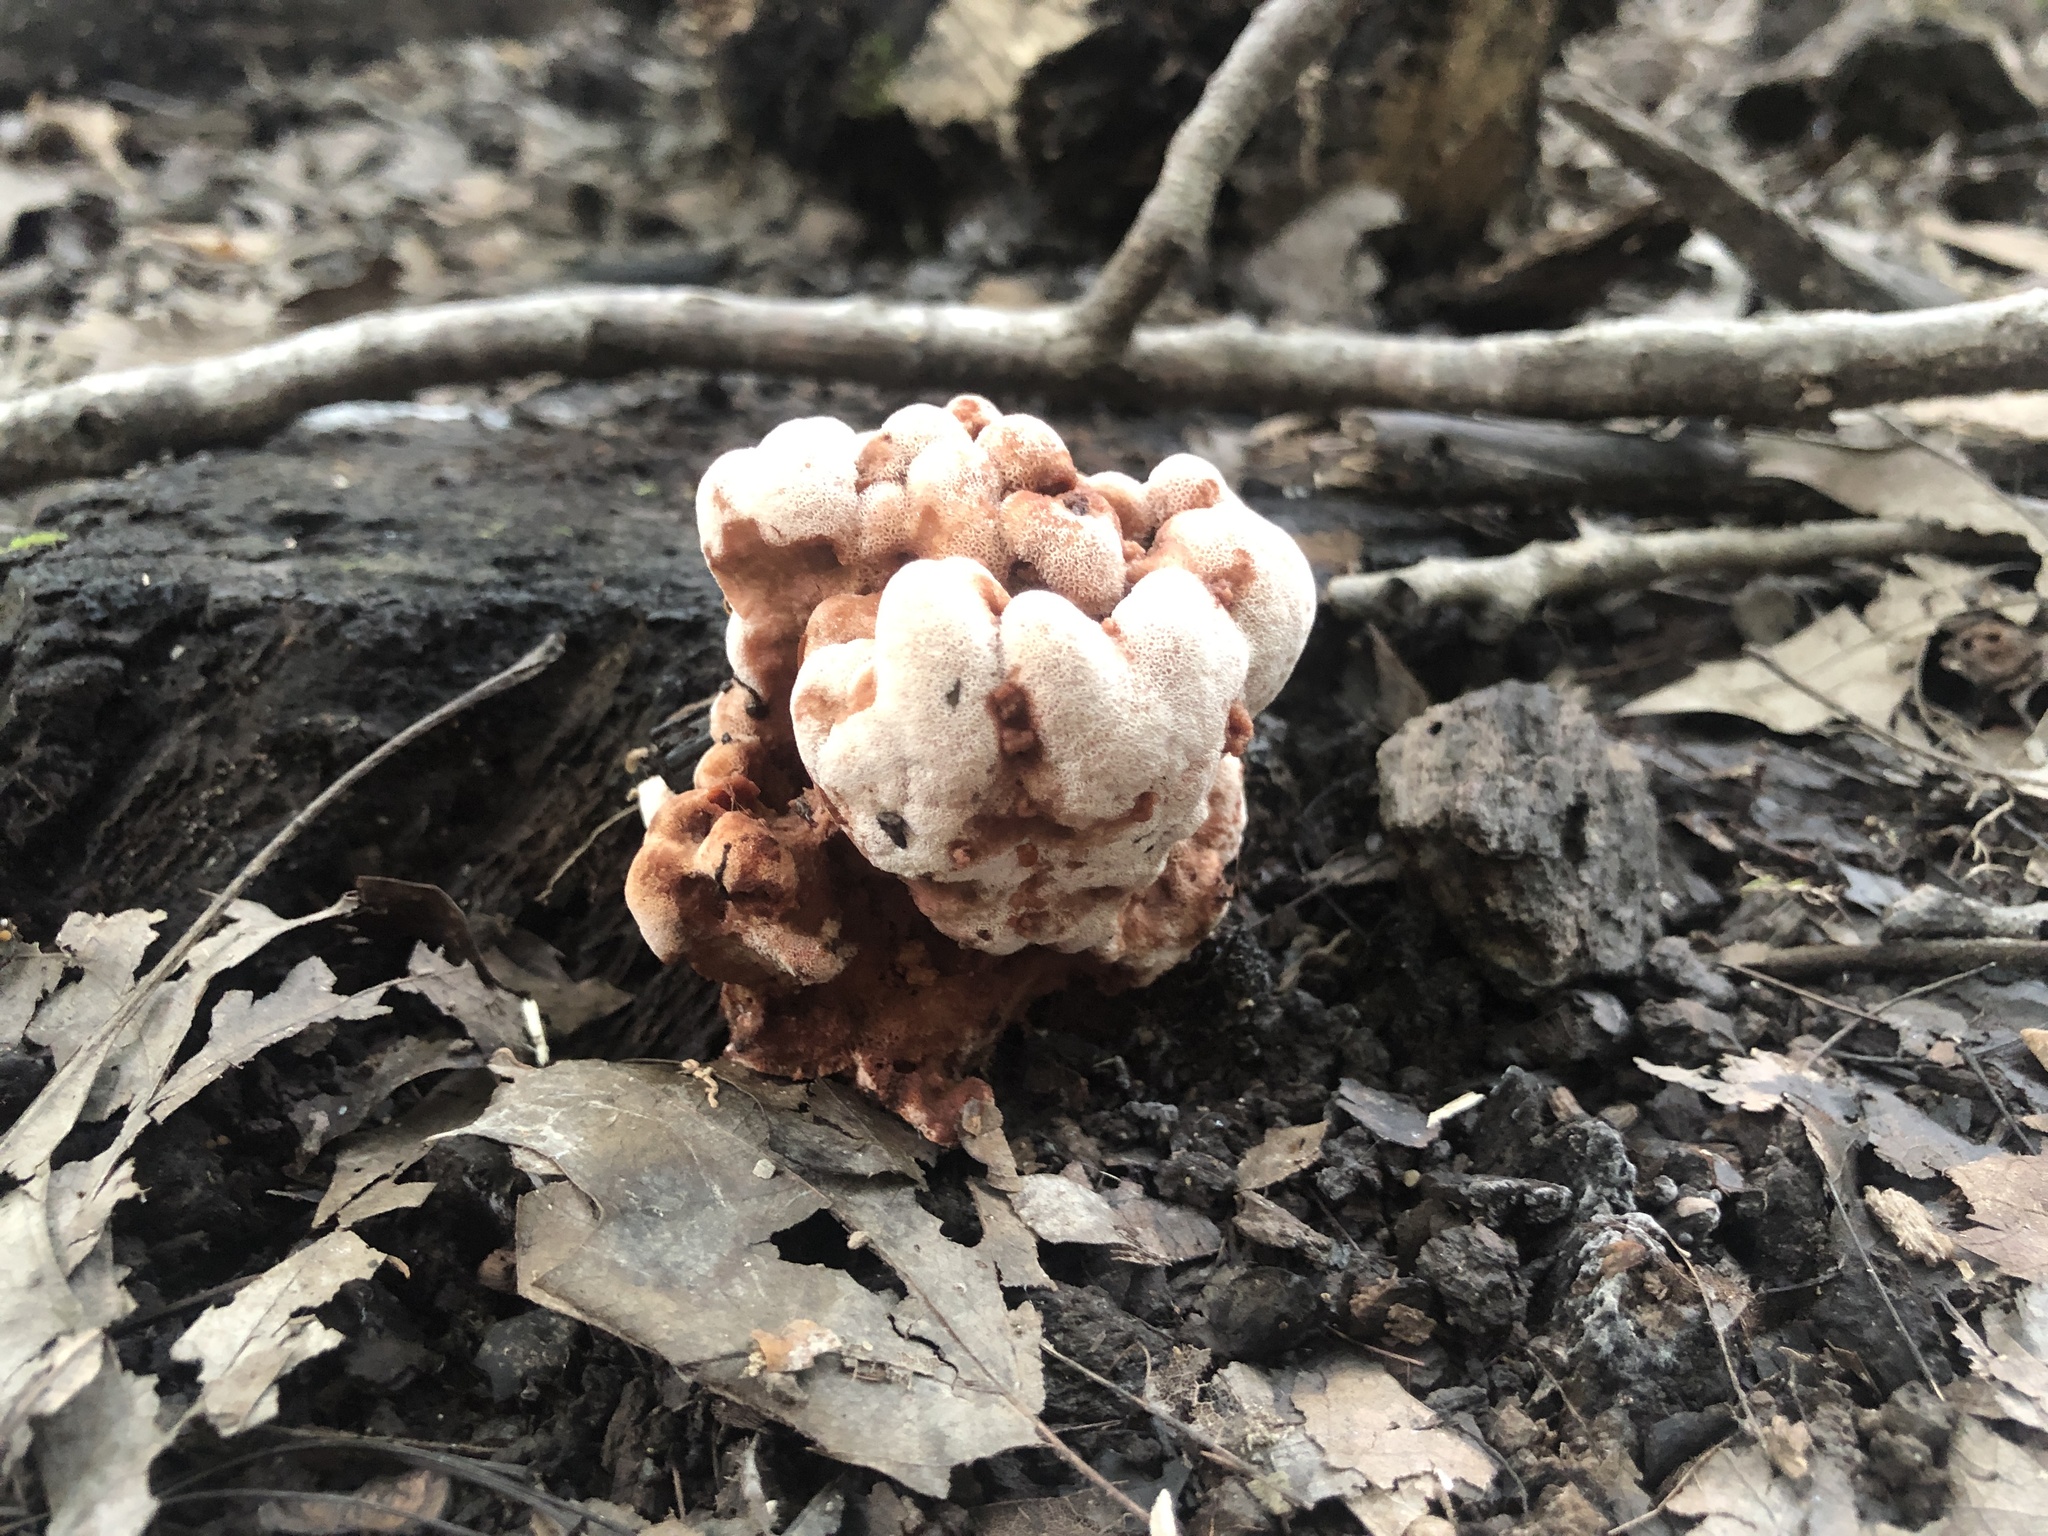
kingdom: Fungi
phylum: Basidiomycota
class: Agaricomycetes
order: Polyporales
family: Podoscyphaceae
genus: Abortiporus
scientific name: Abortiporus biennis
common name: Blushing rosette
